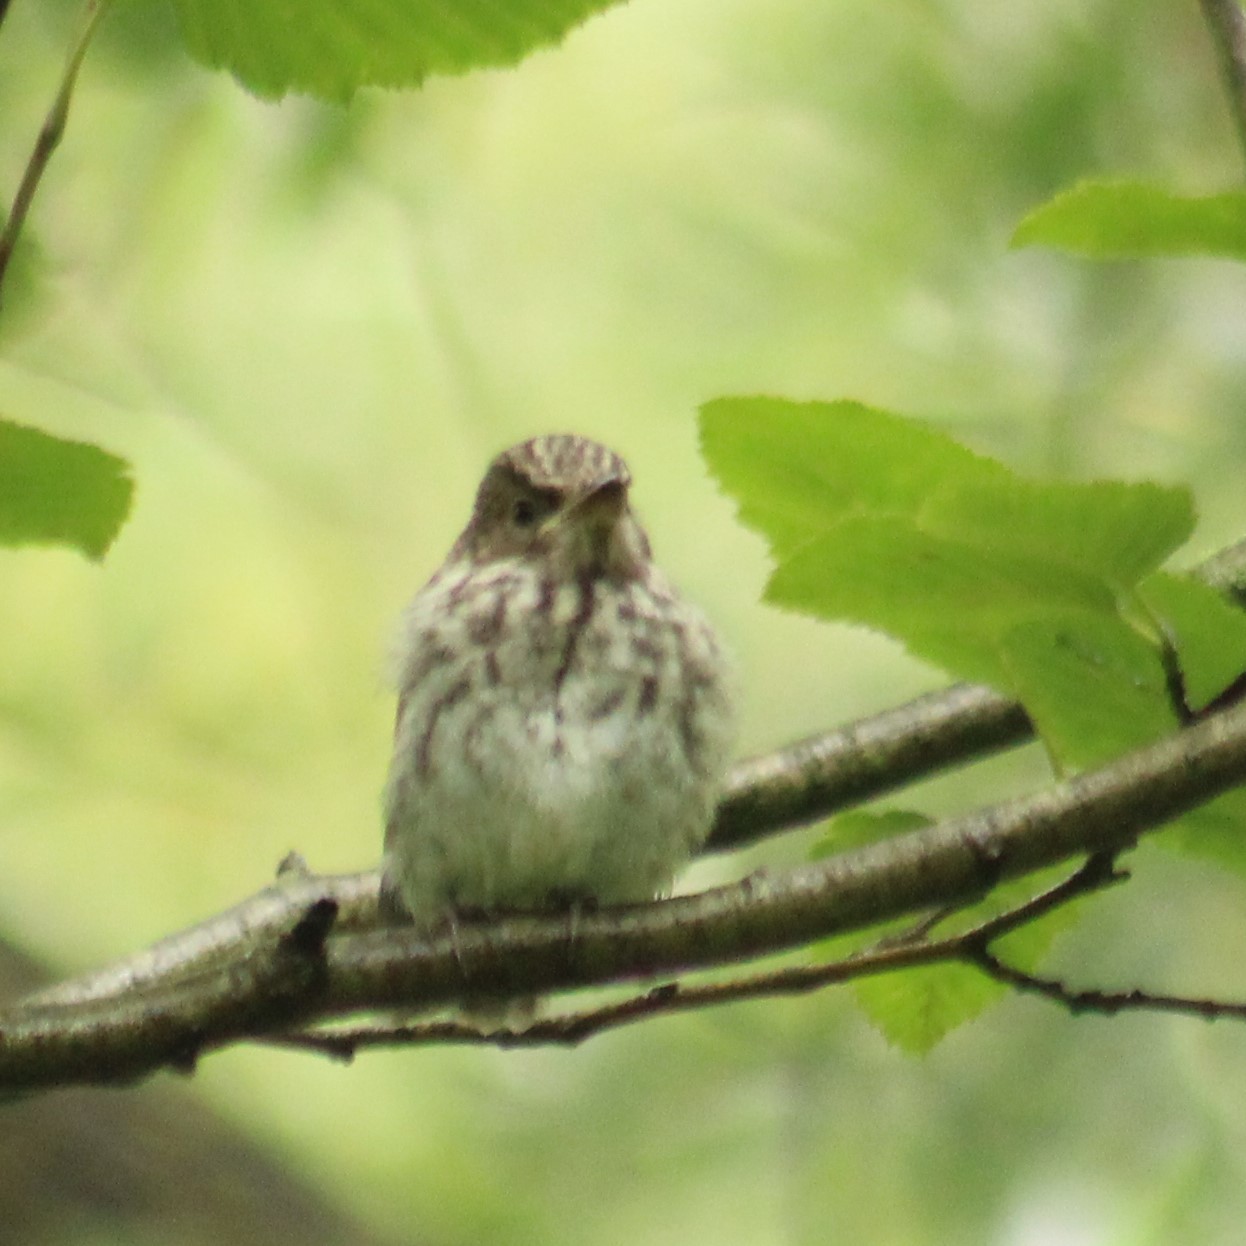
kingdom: Animalia
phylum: Chordata
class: Aves
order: Passeriformes
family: Muscicapidae
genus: Muscicapa
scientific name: Muscicapa striata
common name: Spotted flycatcher
